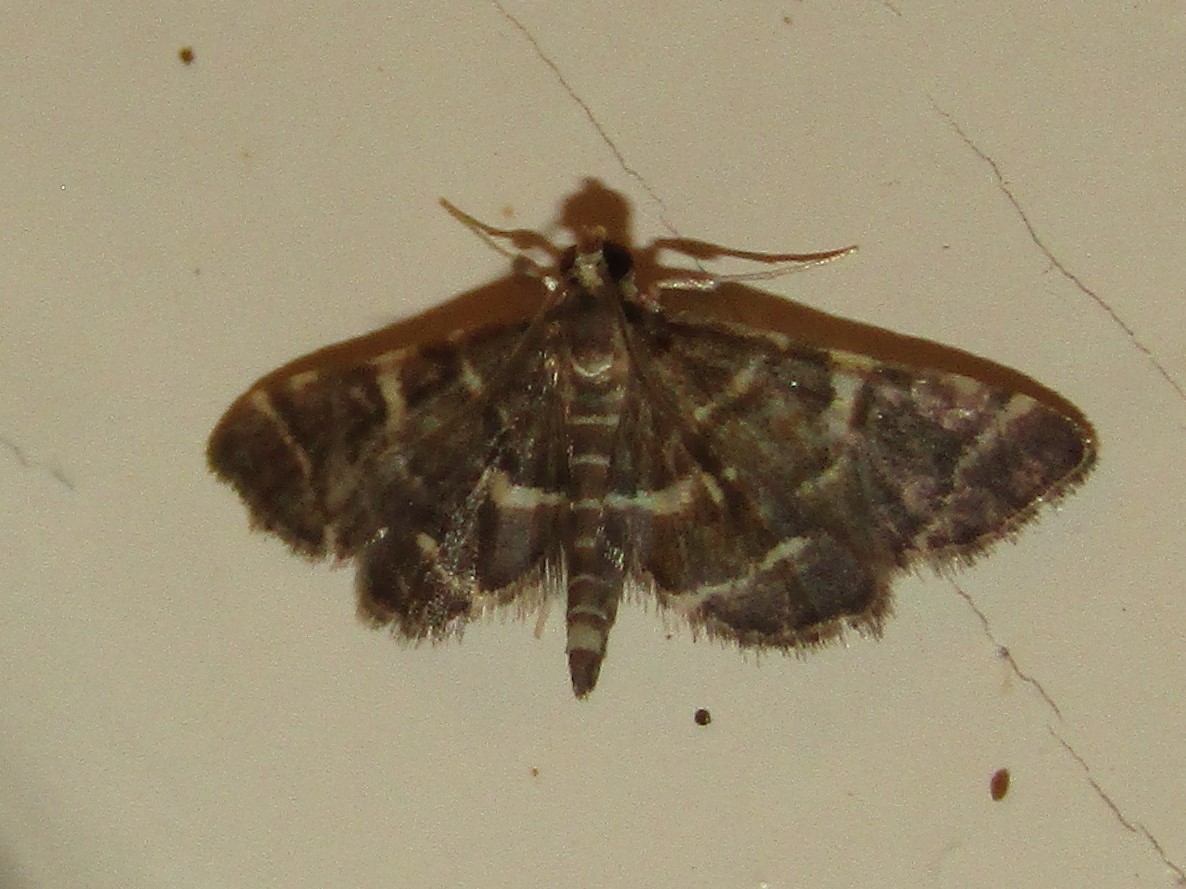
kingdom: Animalia
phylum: Arthropoda
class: Insecta
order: Lepidoptera
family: Crambidae
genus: Anageshna
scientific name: Anageshna primordialis
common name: Yellow-spotted webworm moth
